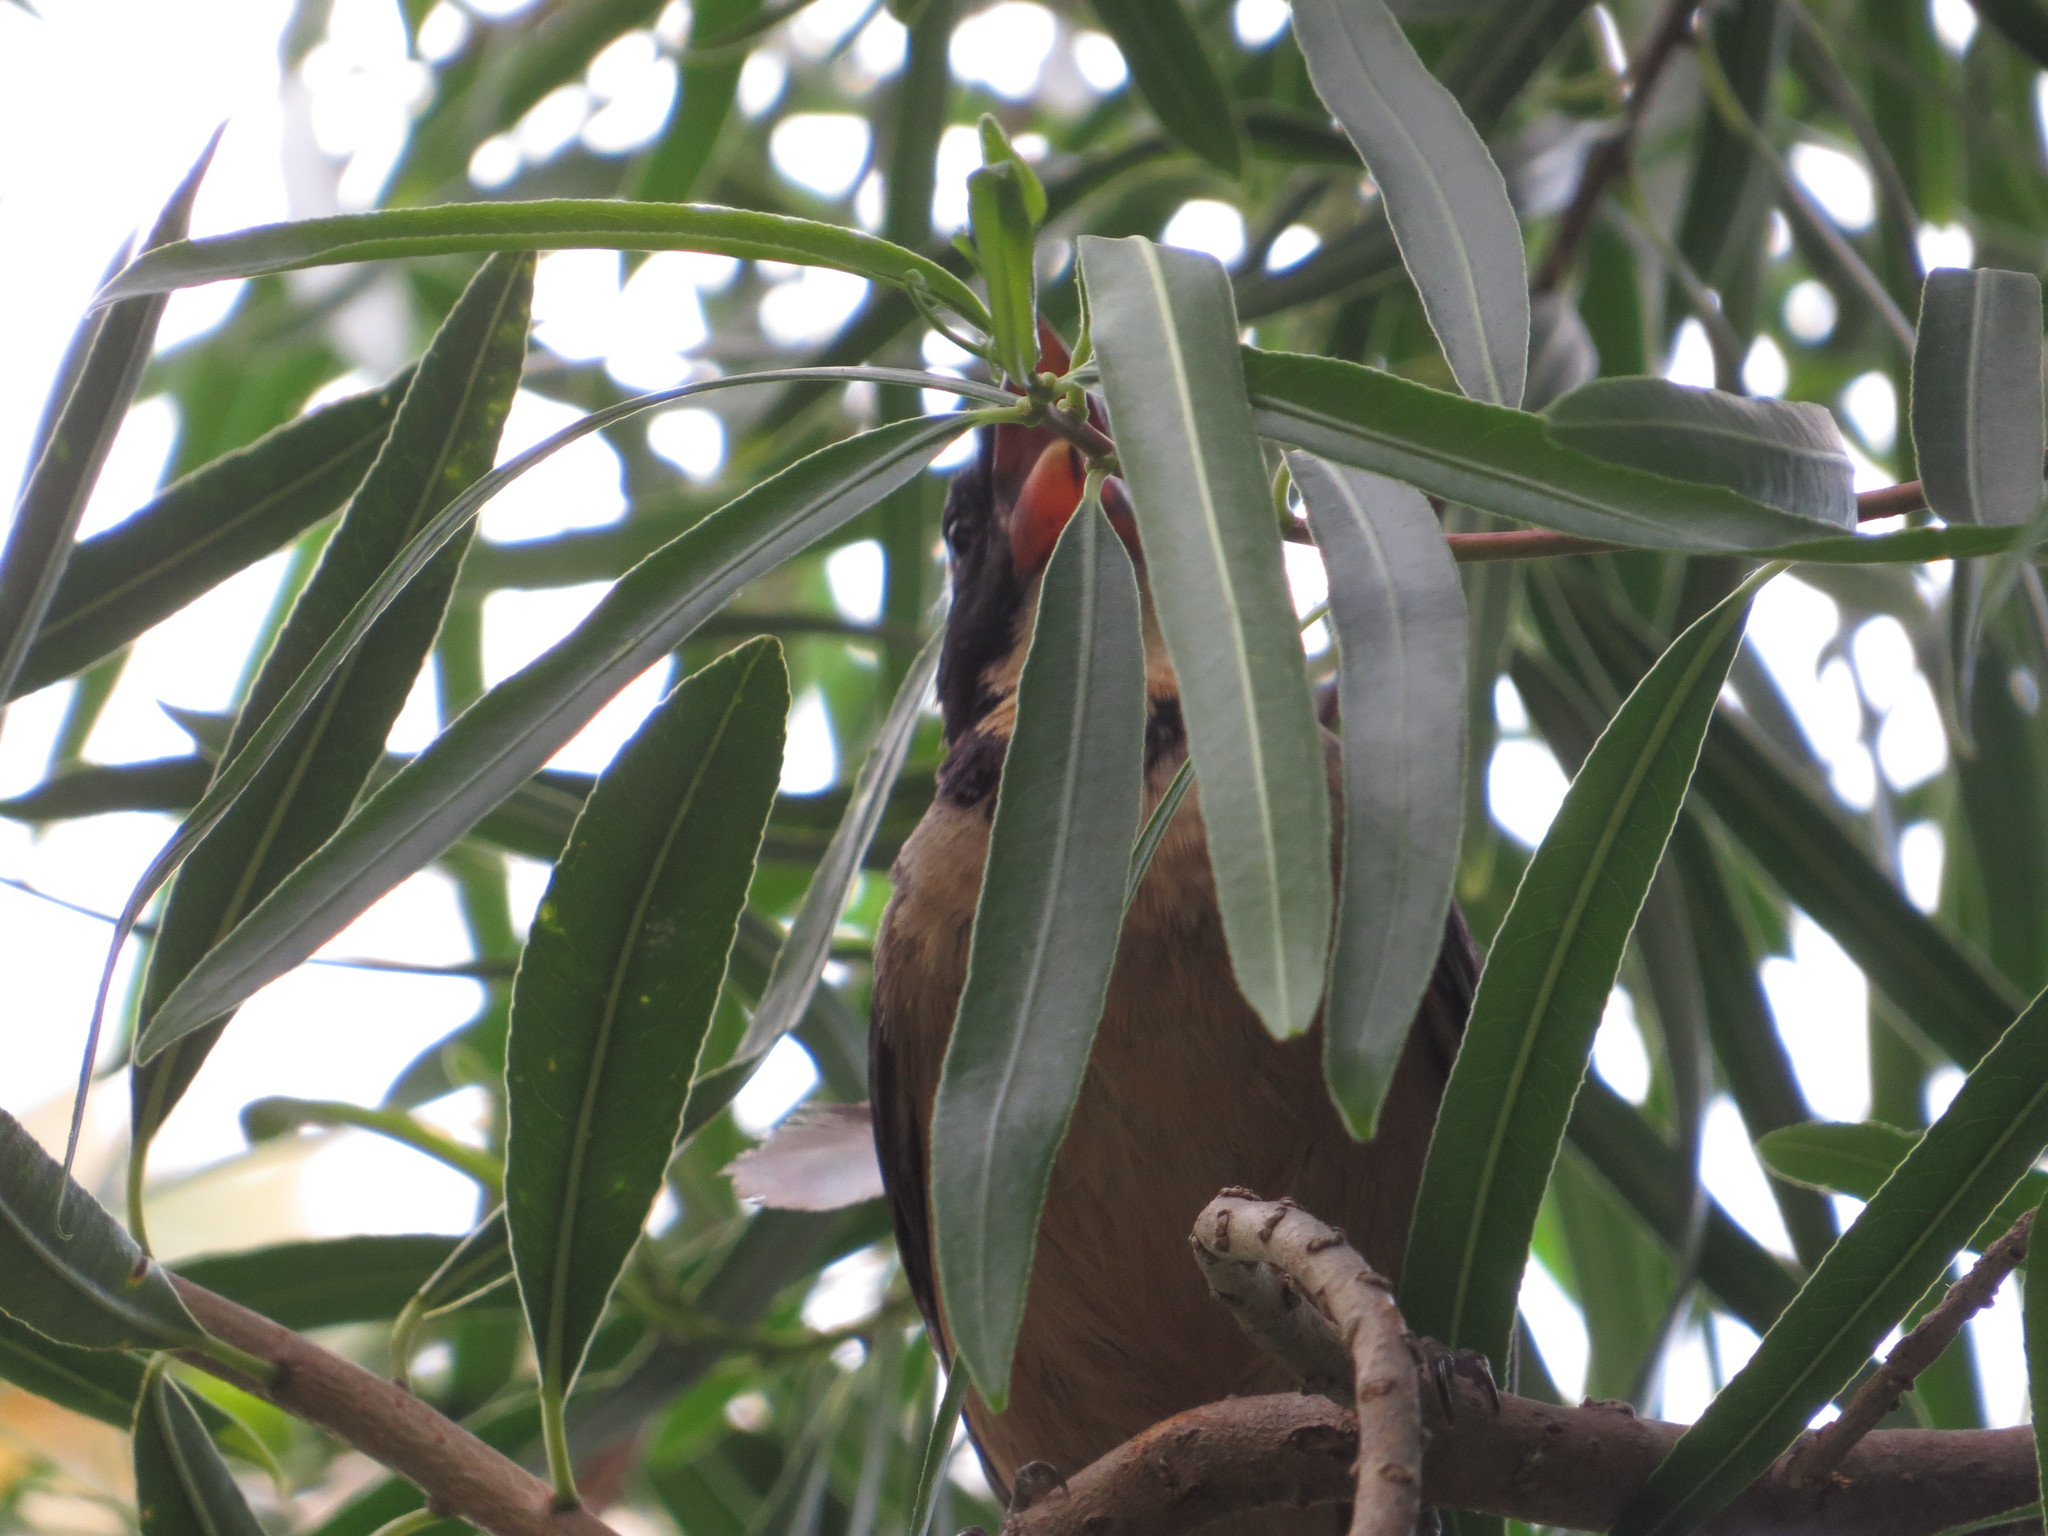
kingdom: Animalia
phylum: Chordata
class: Aves
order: Passeriformes
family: Thraupidae
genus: Saltator
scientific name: Saltator aurantiirostris
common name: Golden-billed saltator
